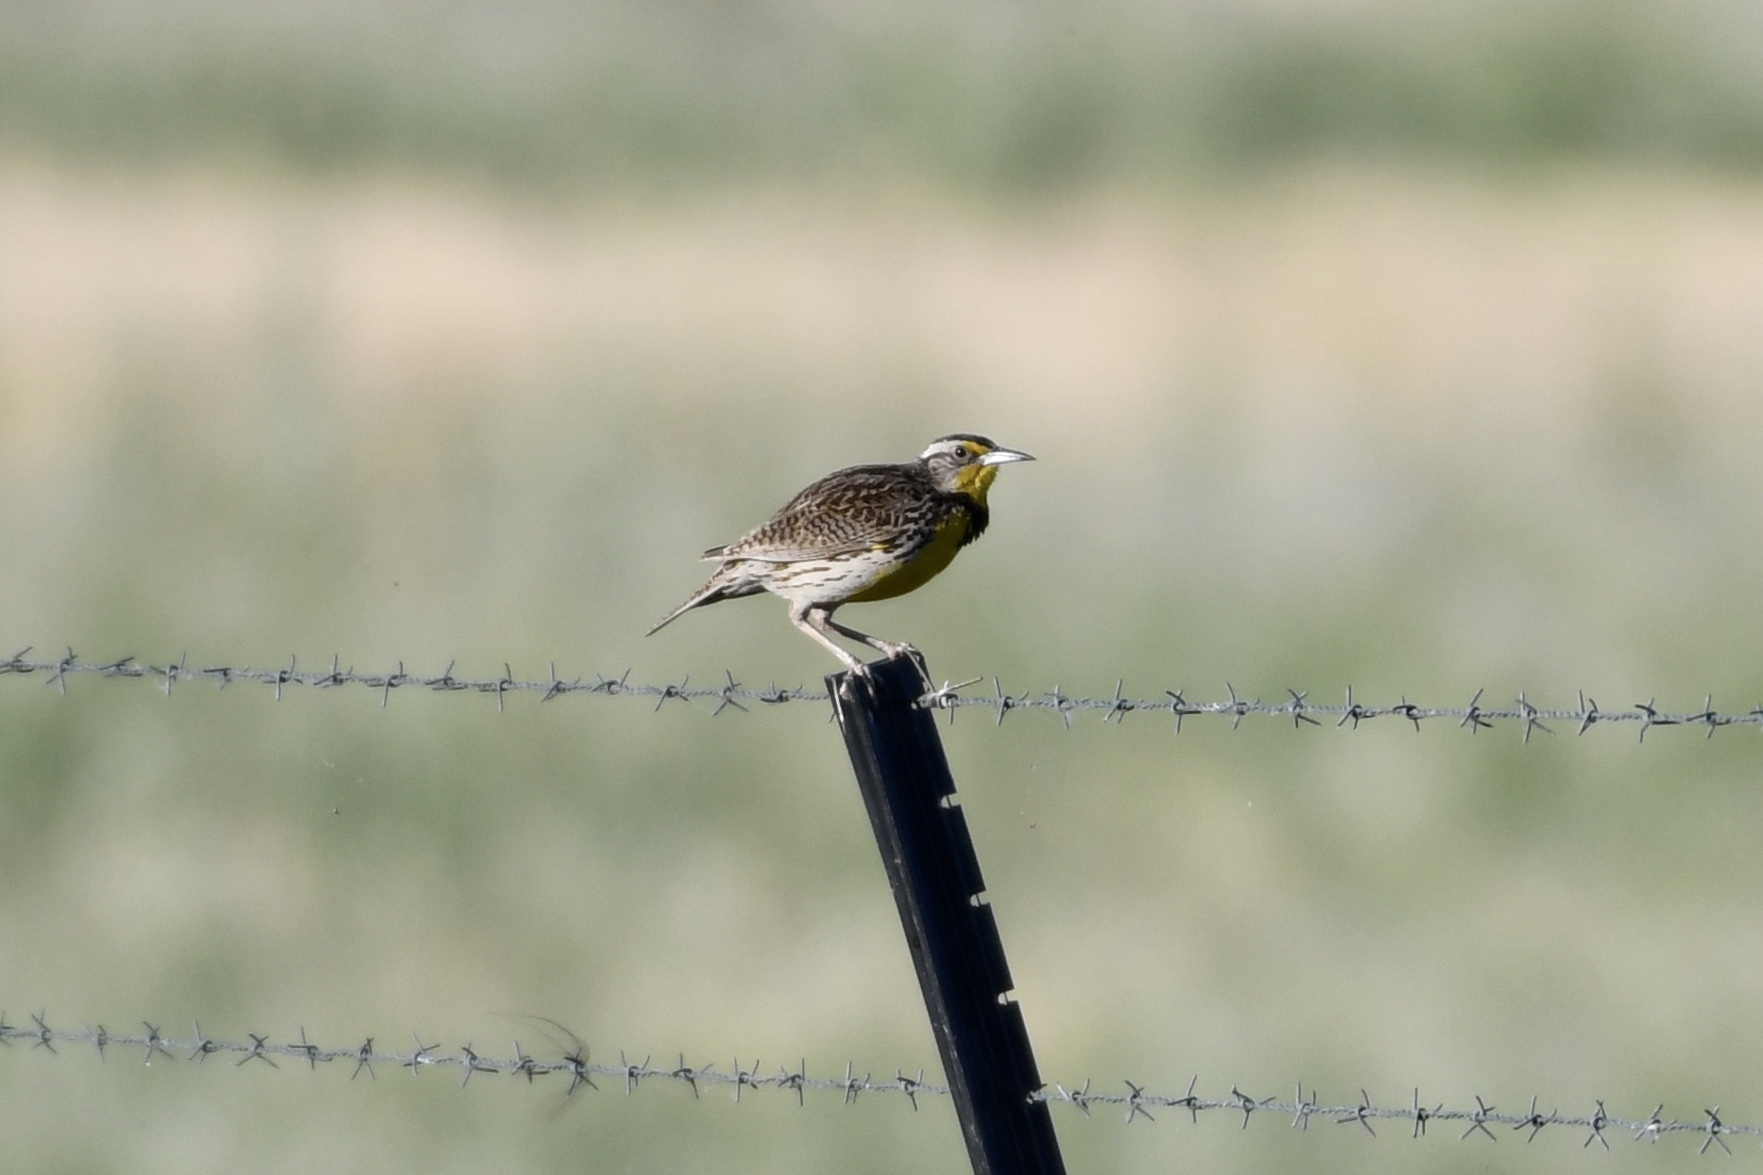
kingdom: Animalia
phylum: Chordata
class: Aves
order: Passeriformes
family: Icteridae
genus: Sturnella
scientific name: Sturnella neglecta
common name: Western meadowlark
